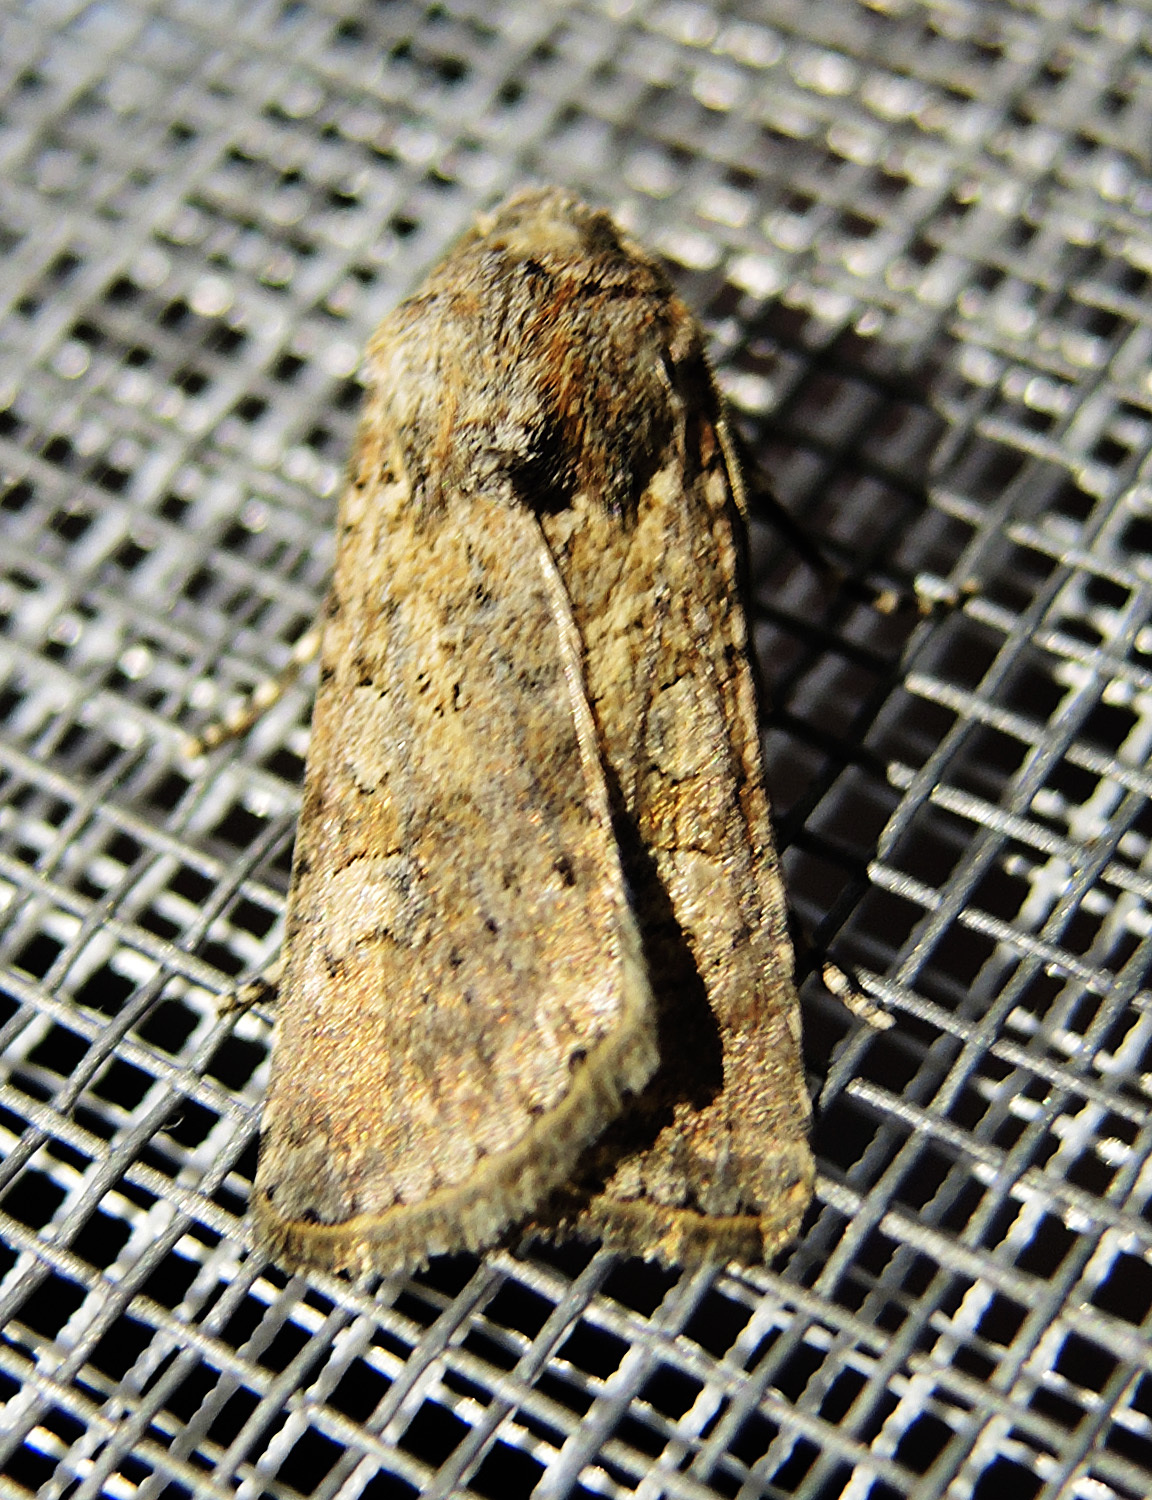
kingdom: Animalia
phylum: Arthropoda
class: Insecta
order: Lepidoptera
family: Noctuidae
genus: Euxoa
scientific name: Euxoa temera
